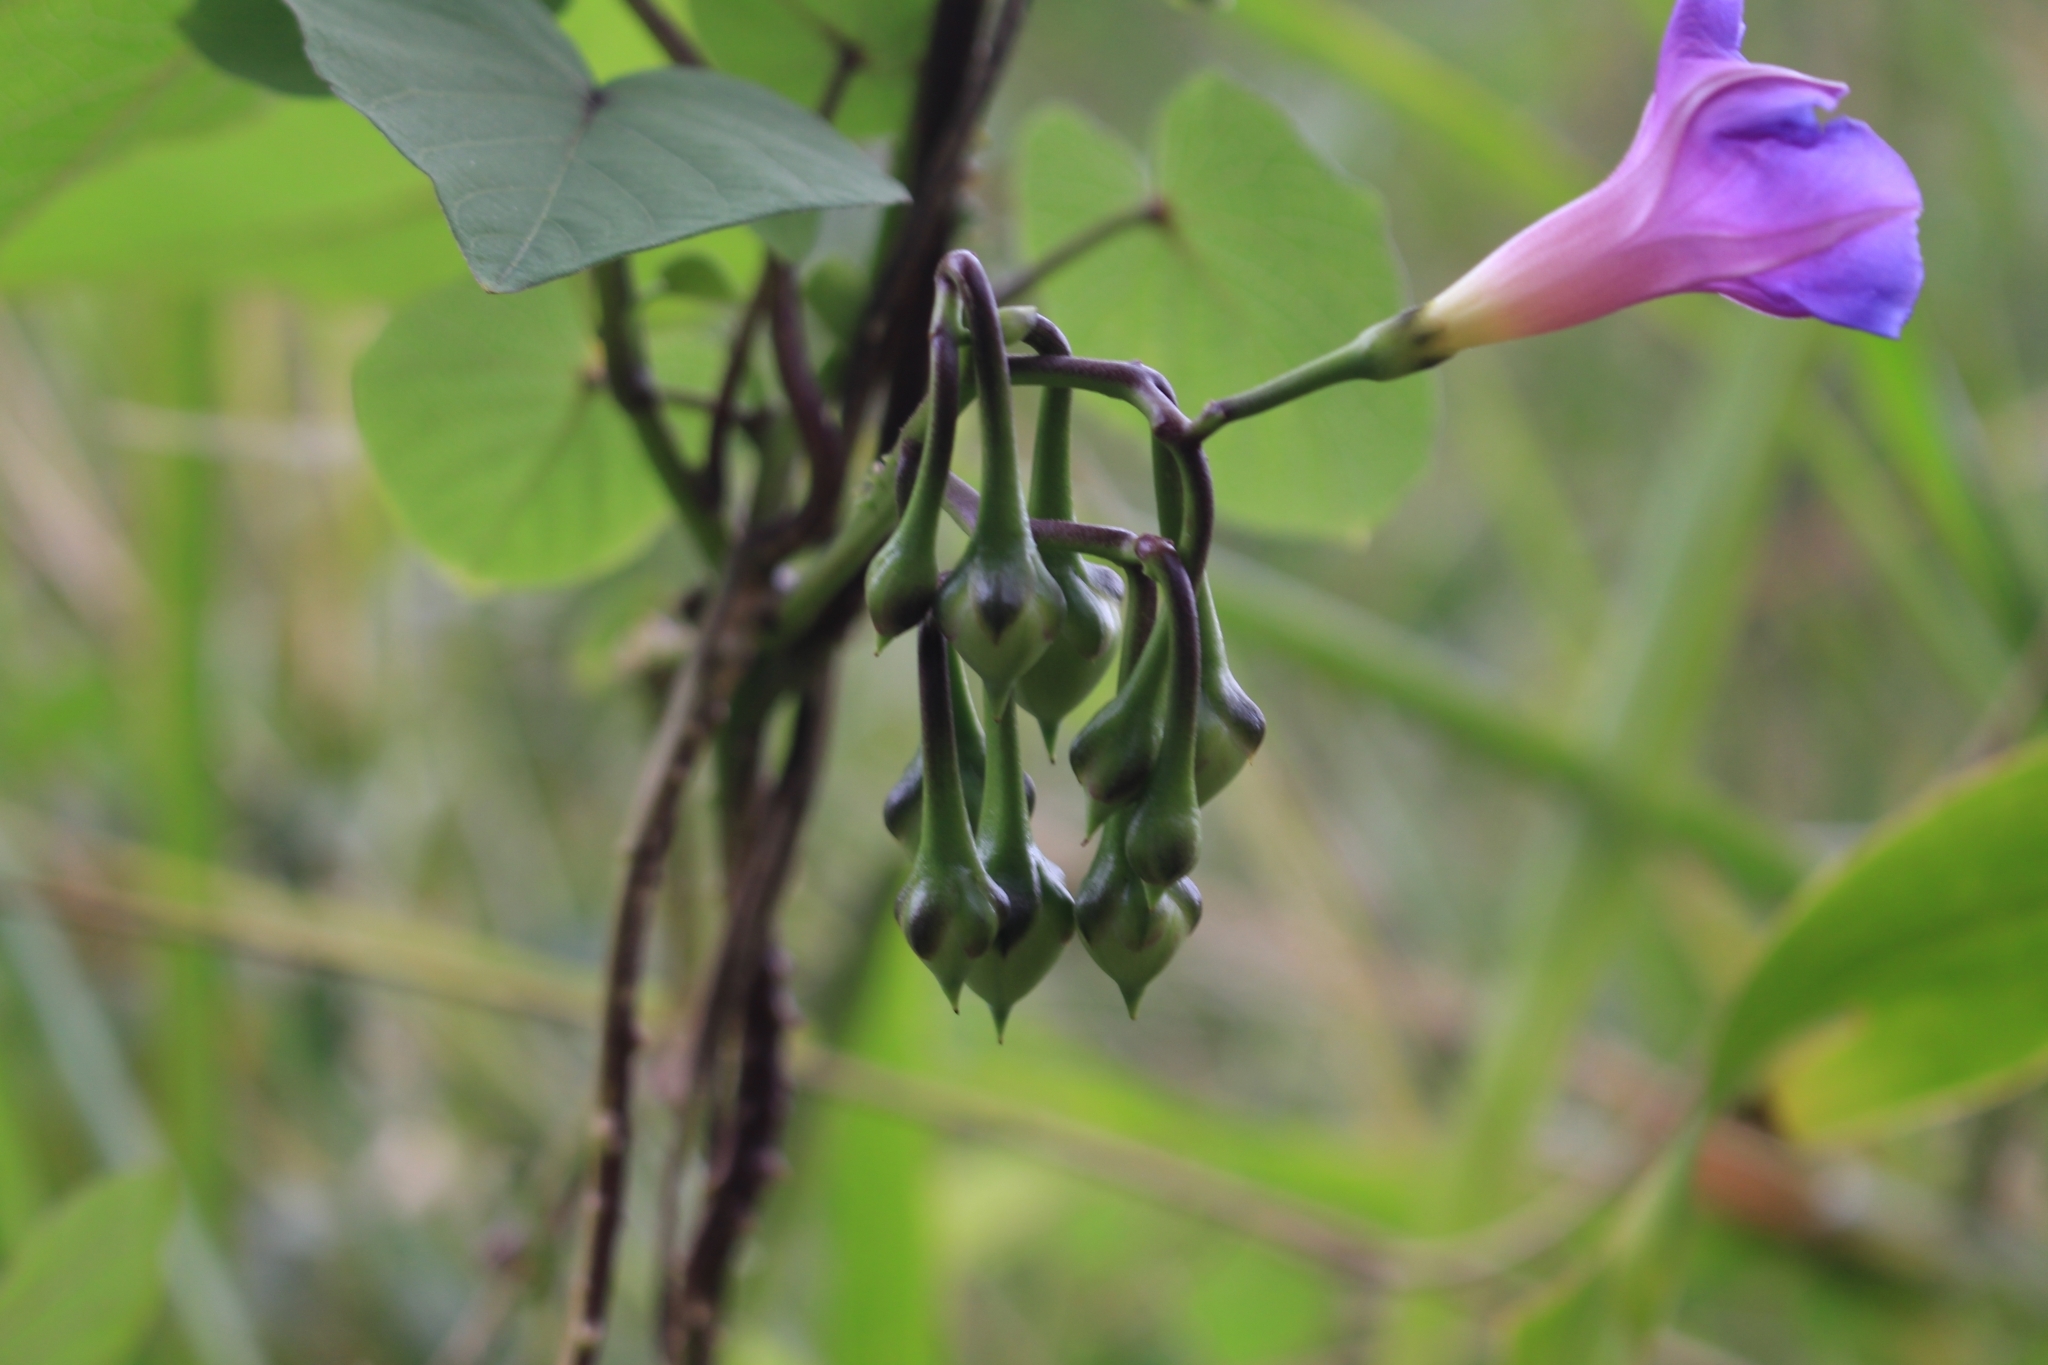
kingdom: Plantae
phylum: Tracheophyta
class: Magnoliopsida
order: Solanales
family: Convolvulaceae
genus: Ipomoea
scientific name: Ipomoea parasitica
